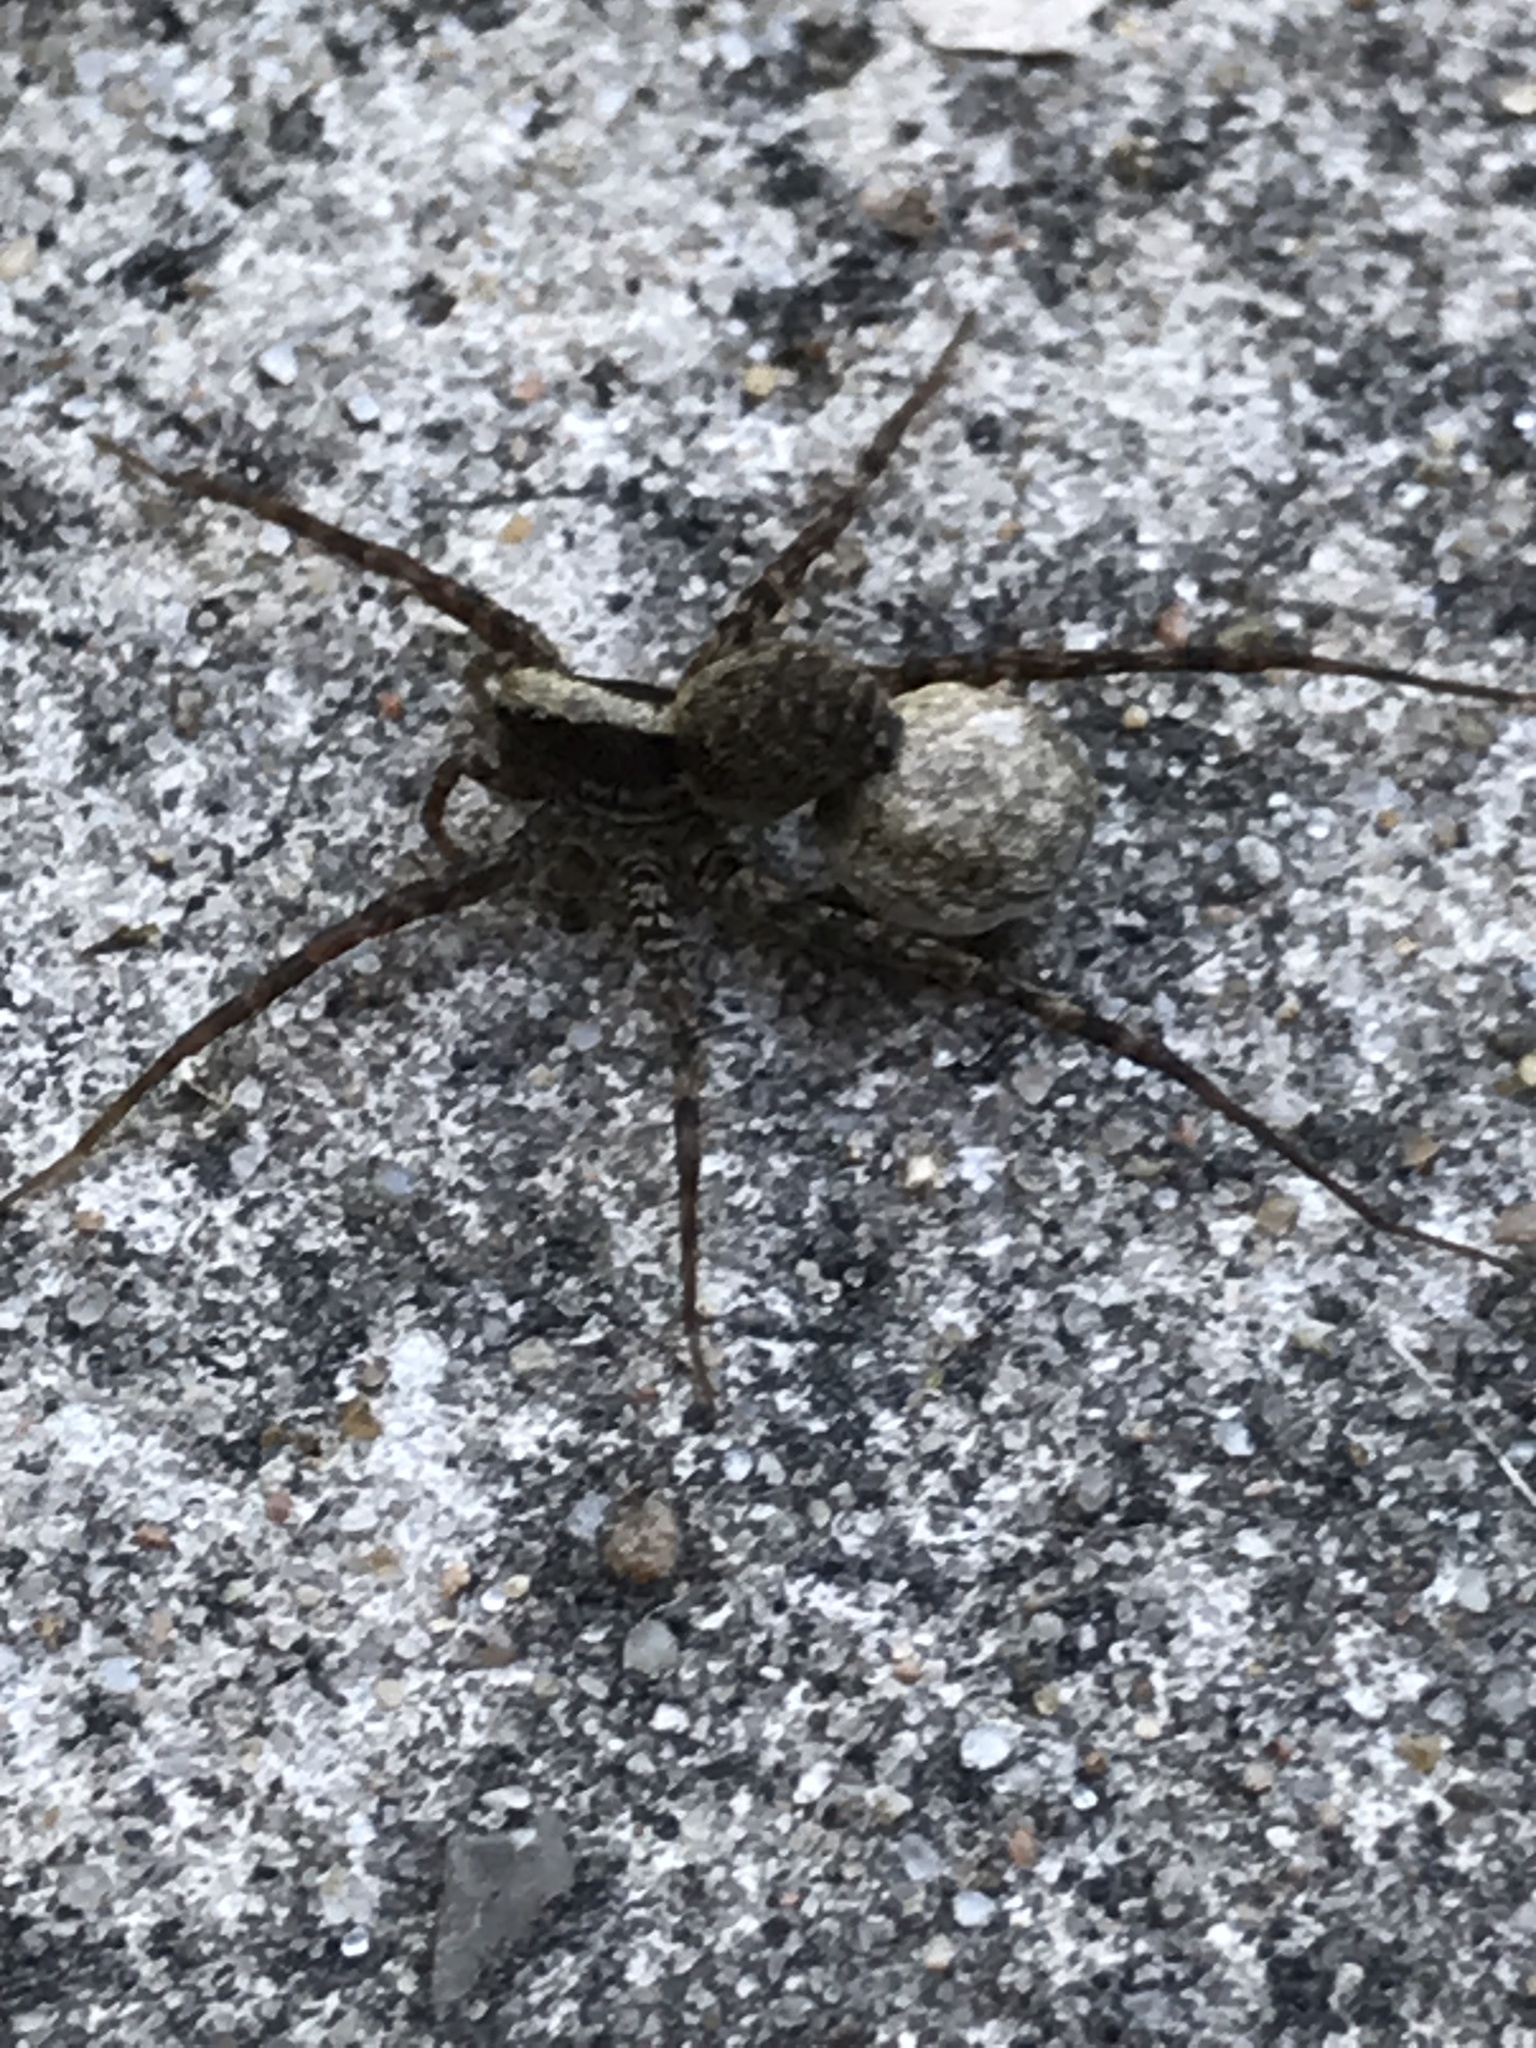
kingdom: Animalia
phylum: Arthropoda
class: Arachnida
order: Araneae
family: Lycosidae
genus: Pardosa
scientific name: Pardosa
